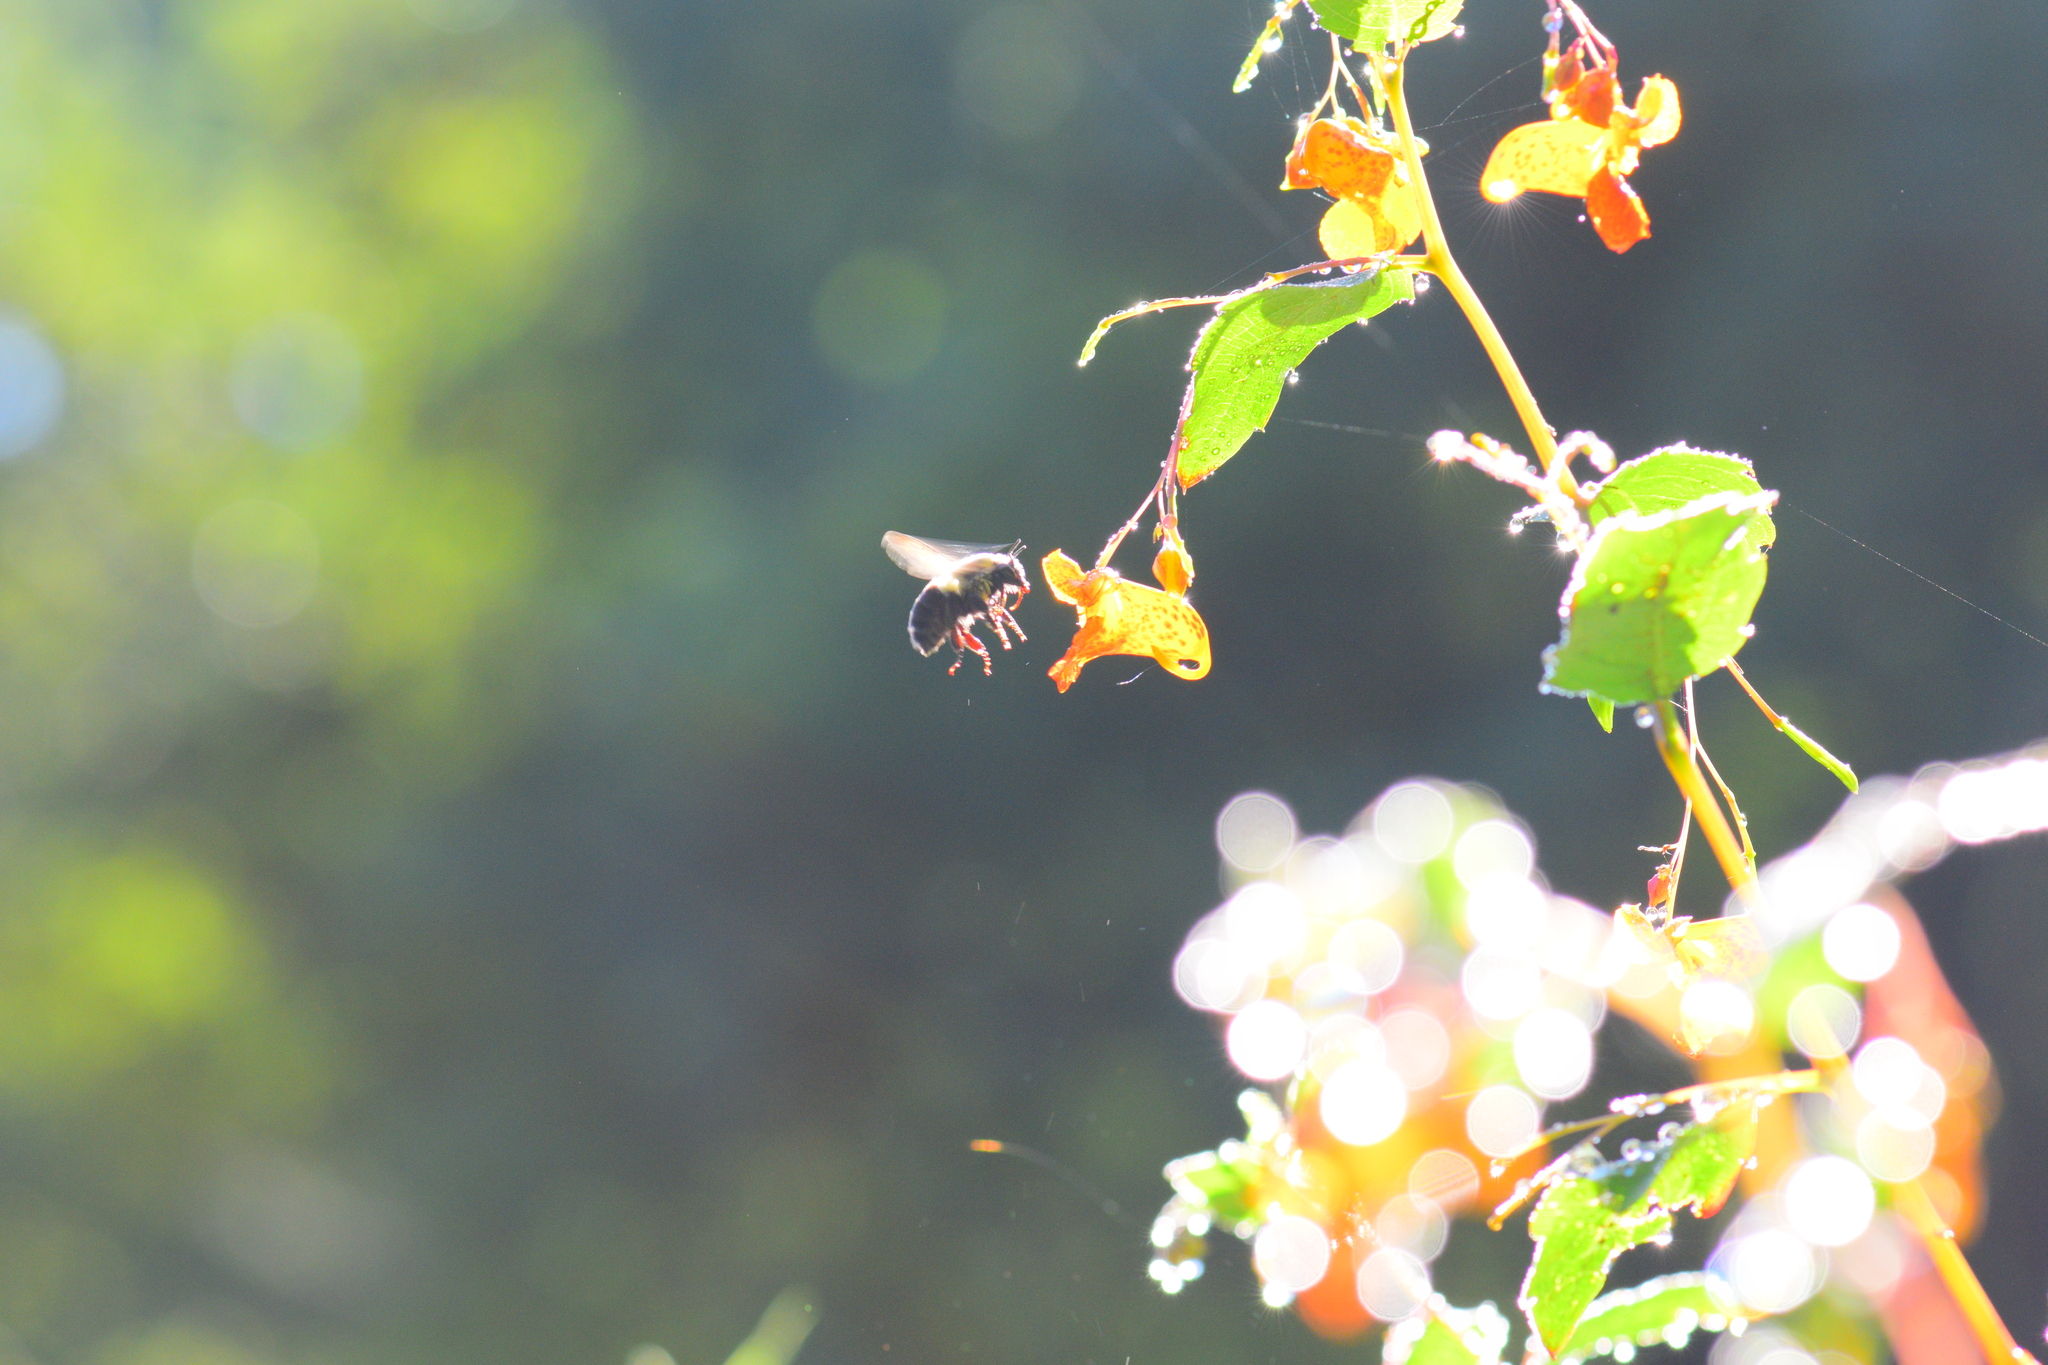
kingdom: Animalia
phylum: Arthropoda
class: Insecta
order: Hymenoptera
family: Apidae
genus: Bombus
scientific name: Bombus impatiens
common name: Common eastern bumble bee
